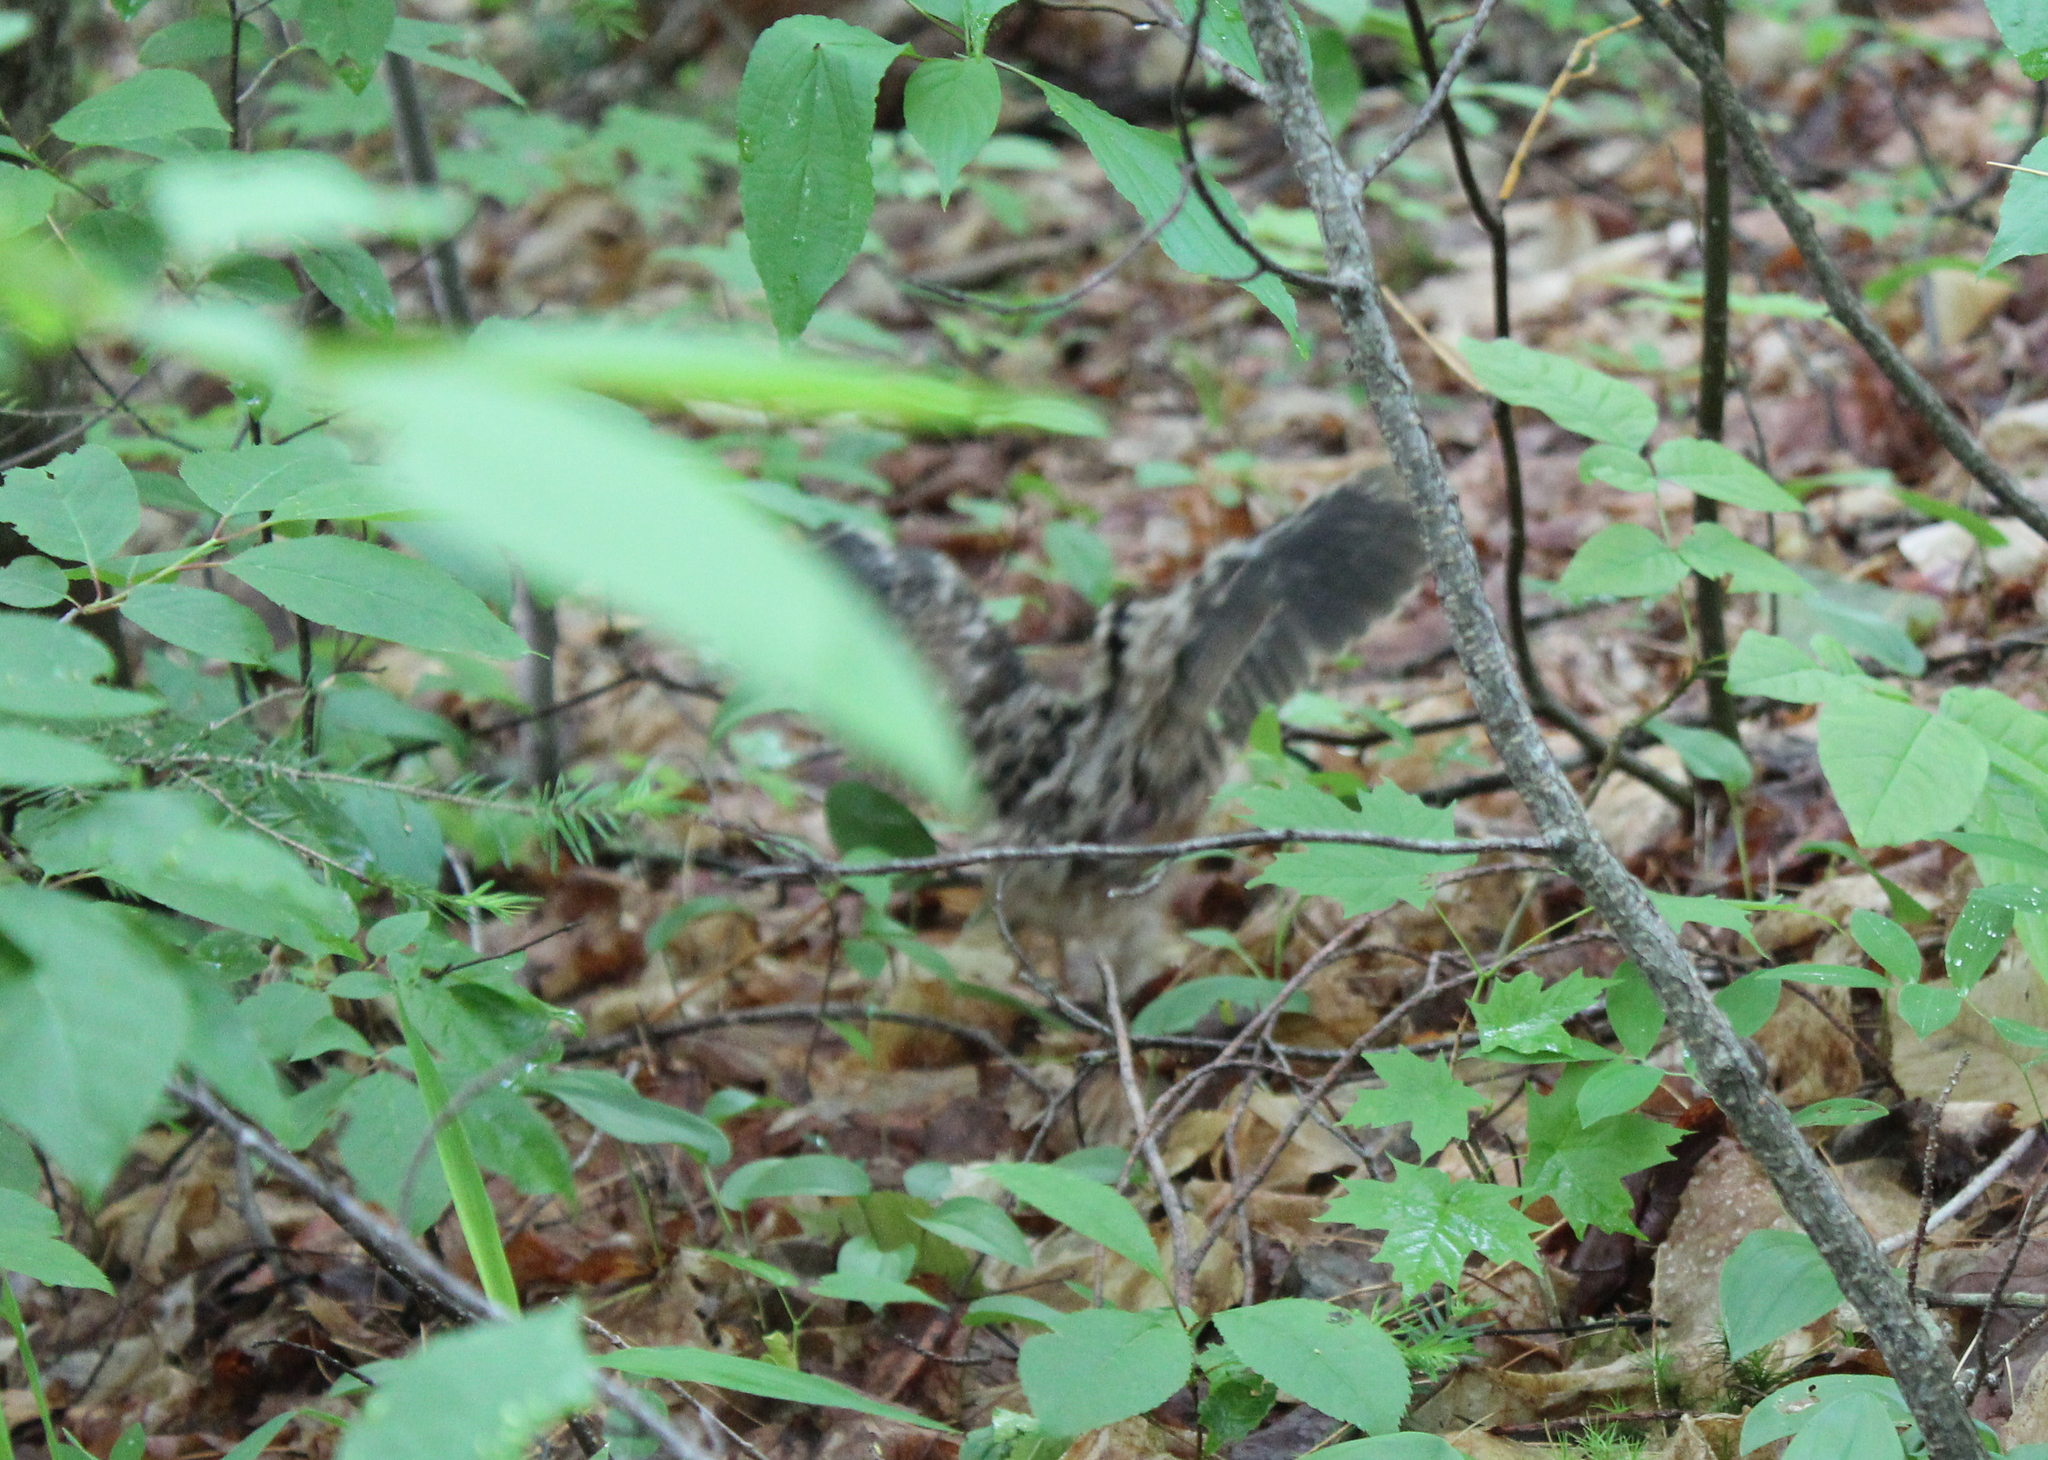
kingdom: Animalia
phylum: Chordata
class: Aves
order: Charadriiformes
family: Scolopacidae
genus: Scolopax
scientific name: Scolopax minor
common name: American woodcock
